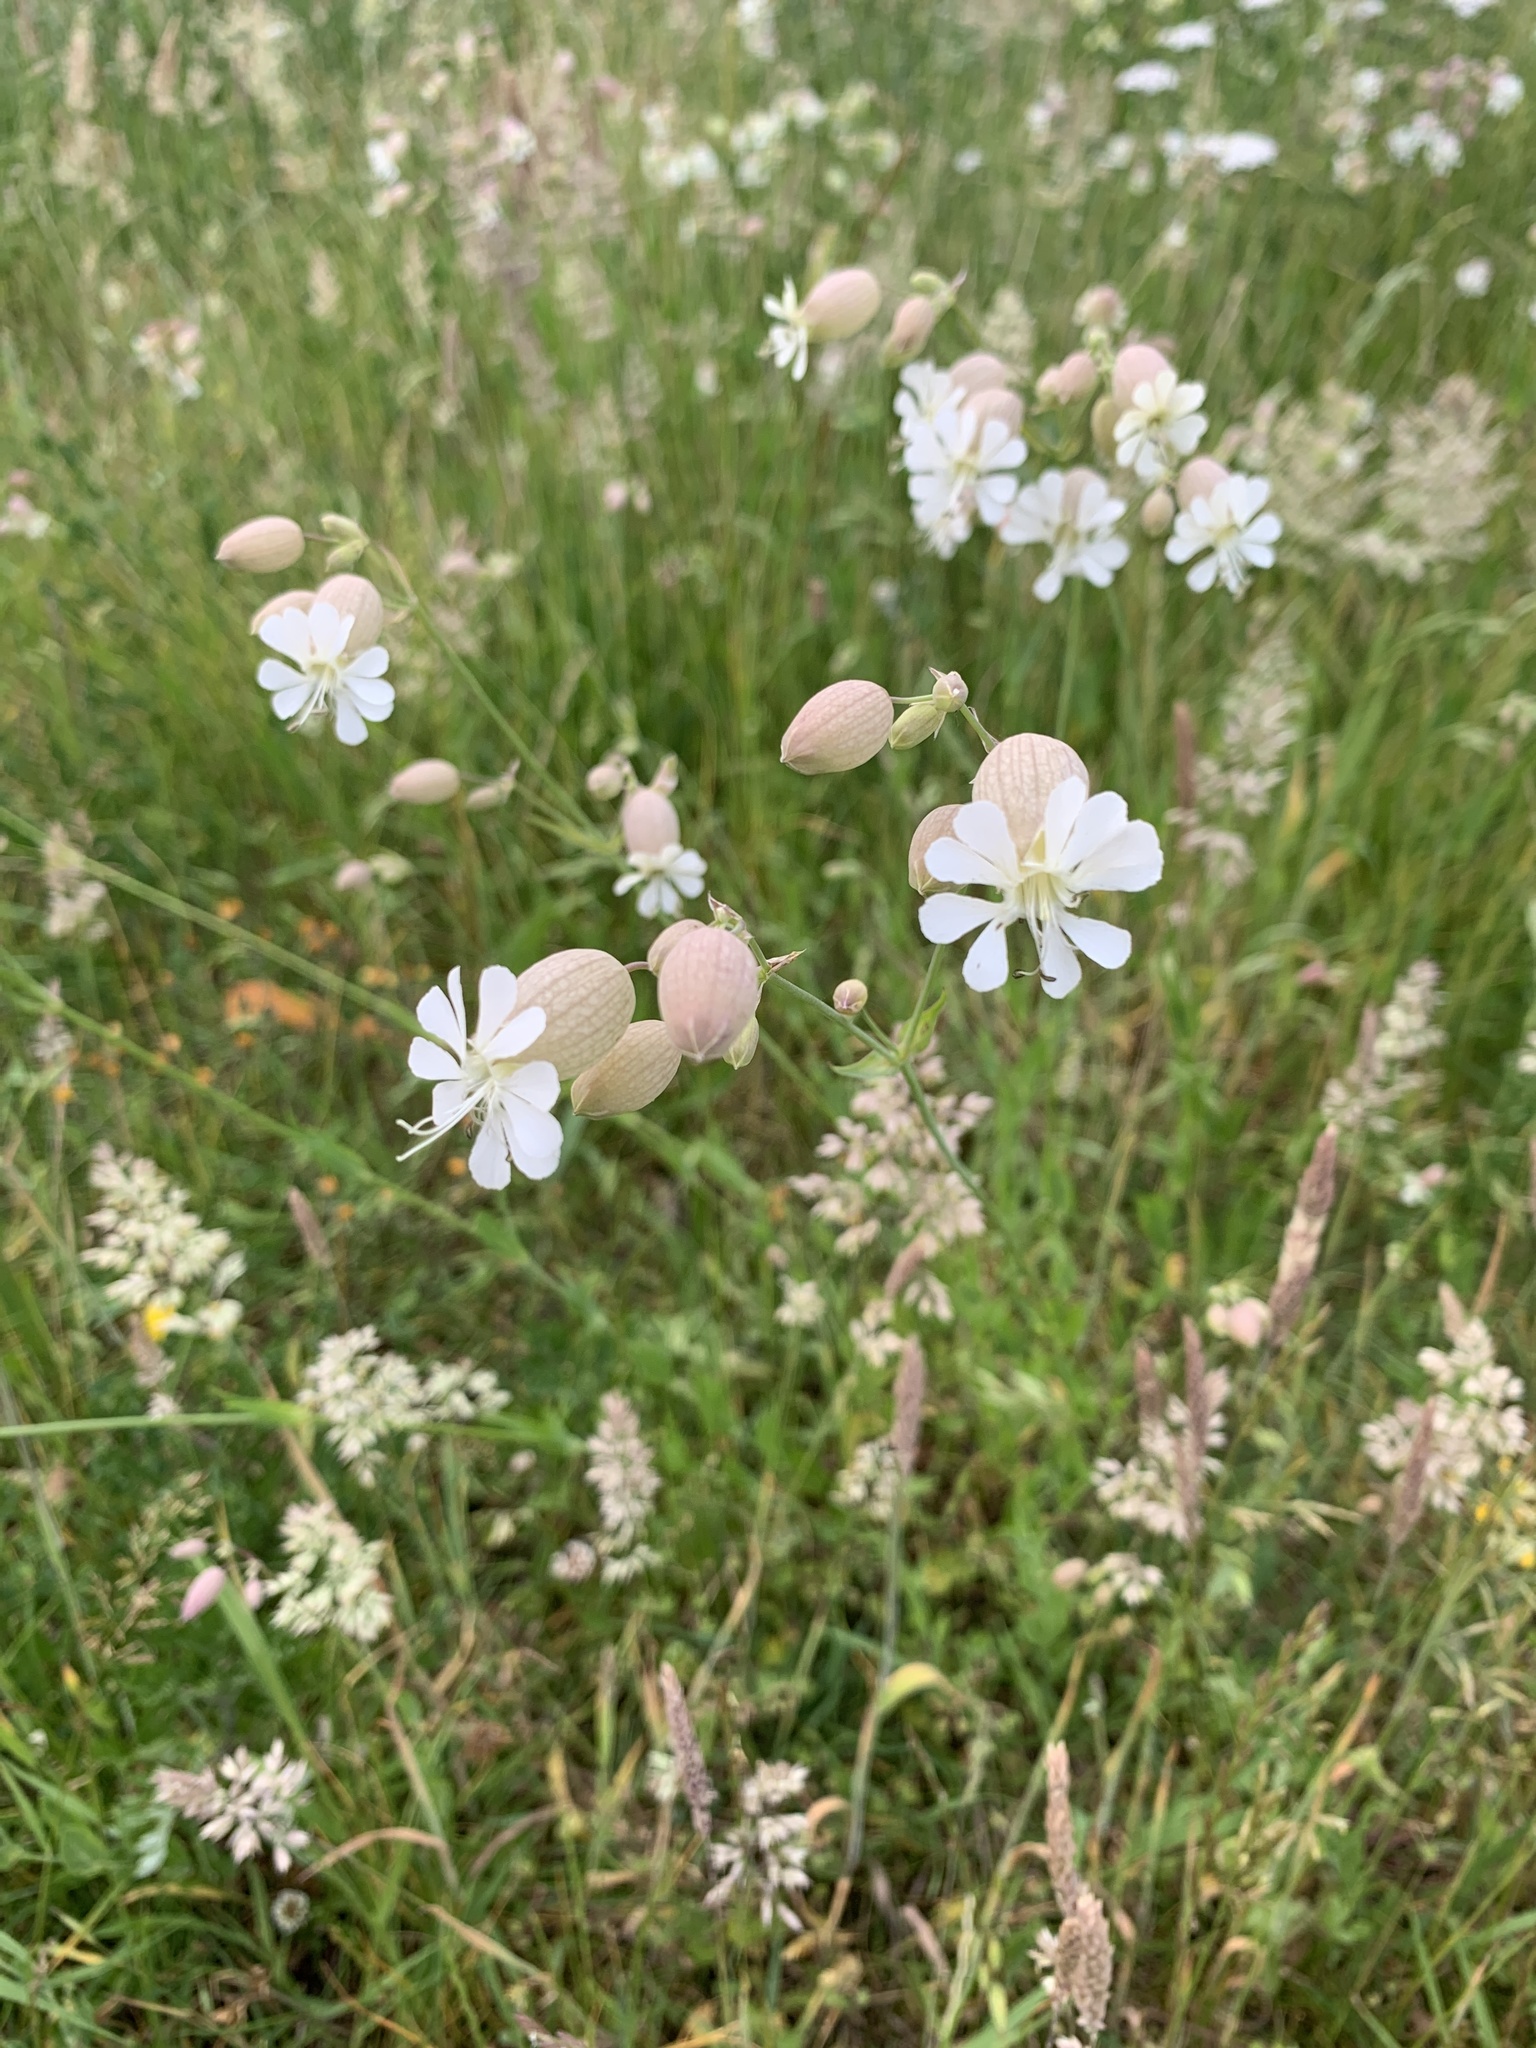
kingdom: Plantae
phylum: Tracheophyta
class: Magnoliopsida
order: Caryophyllales
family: Caryophyllaceae
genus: Silene
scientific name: Silene vulgaris
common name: Bladder campion
